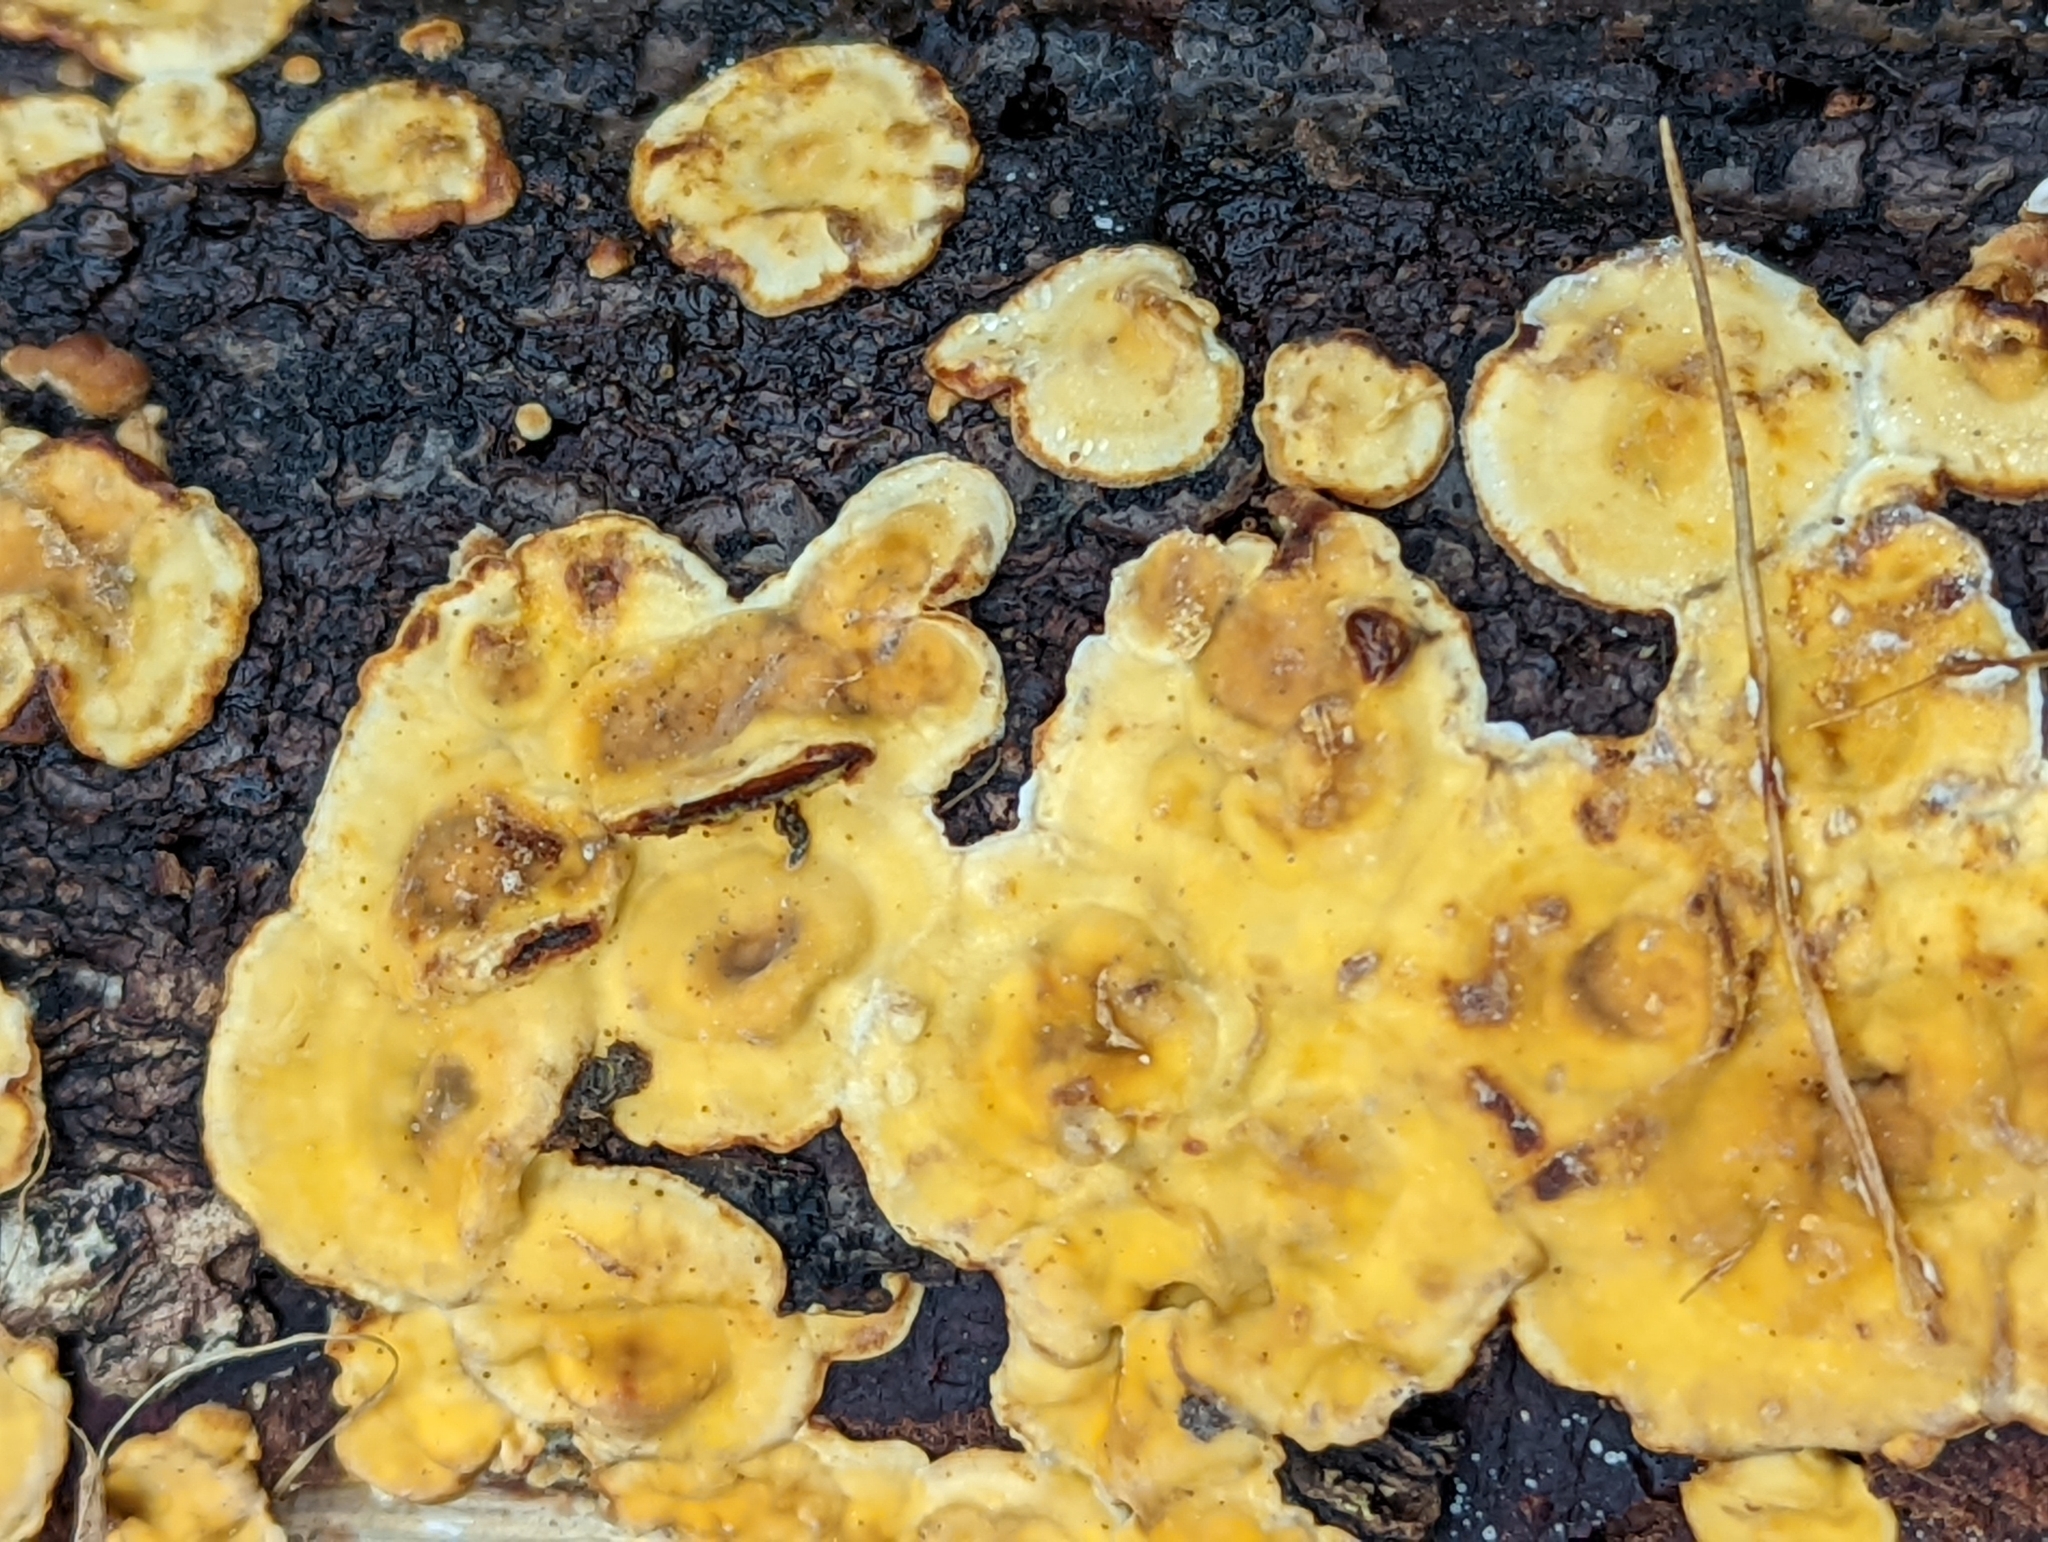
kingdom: Fungi
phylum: Basidiomycota
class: Agaricomycetes
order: Russulales
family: Stereaceae
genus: Stereum
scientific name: Stereum hirsutum
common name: Hairy curtain crust
